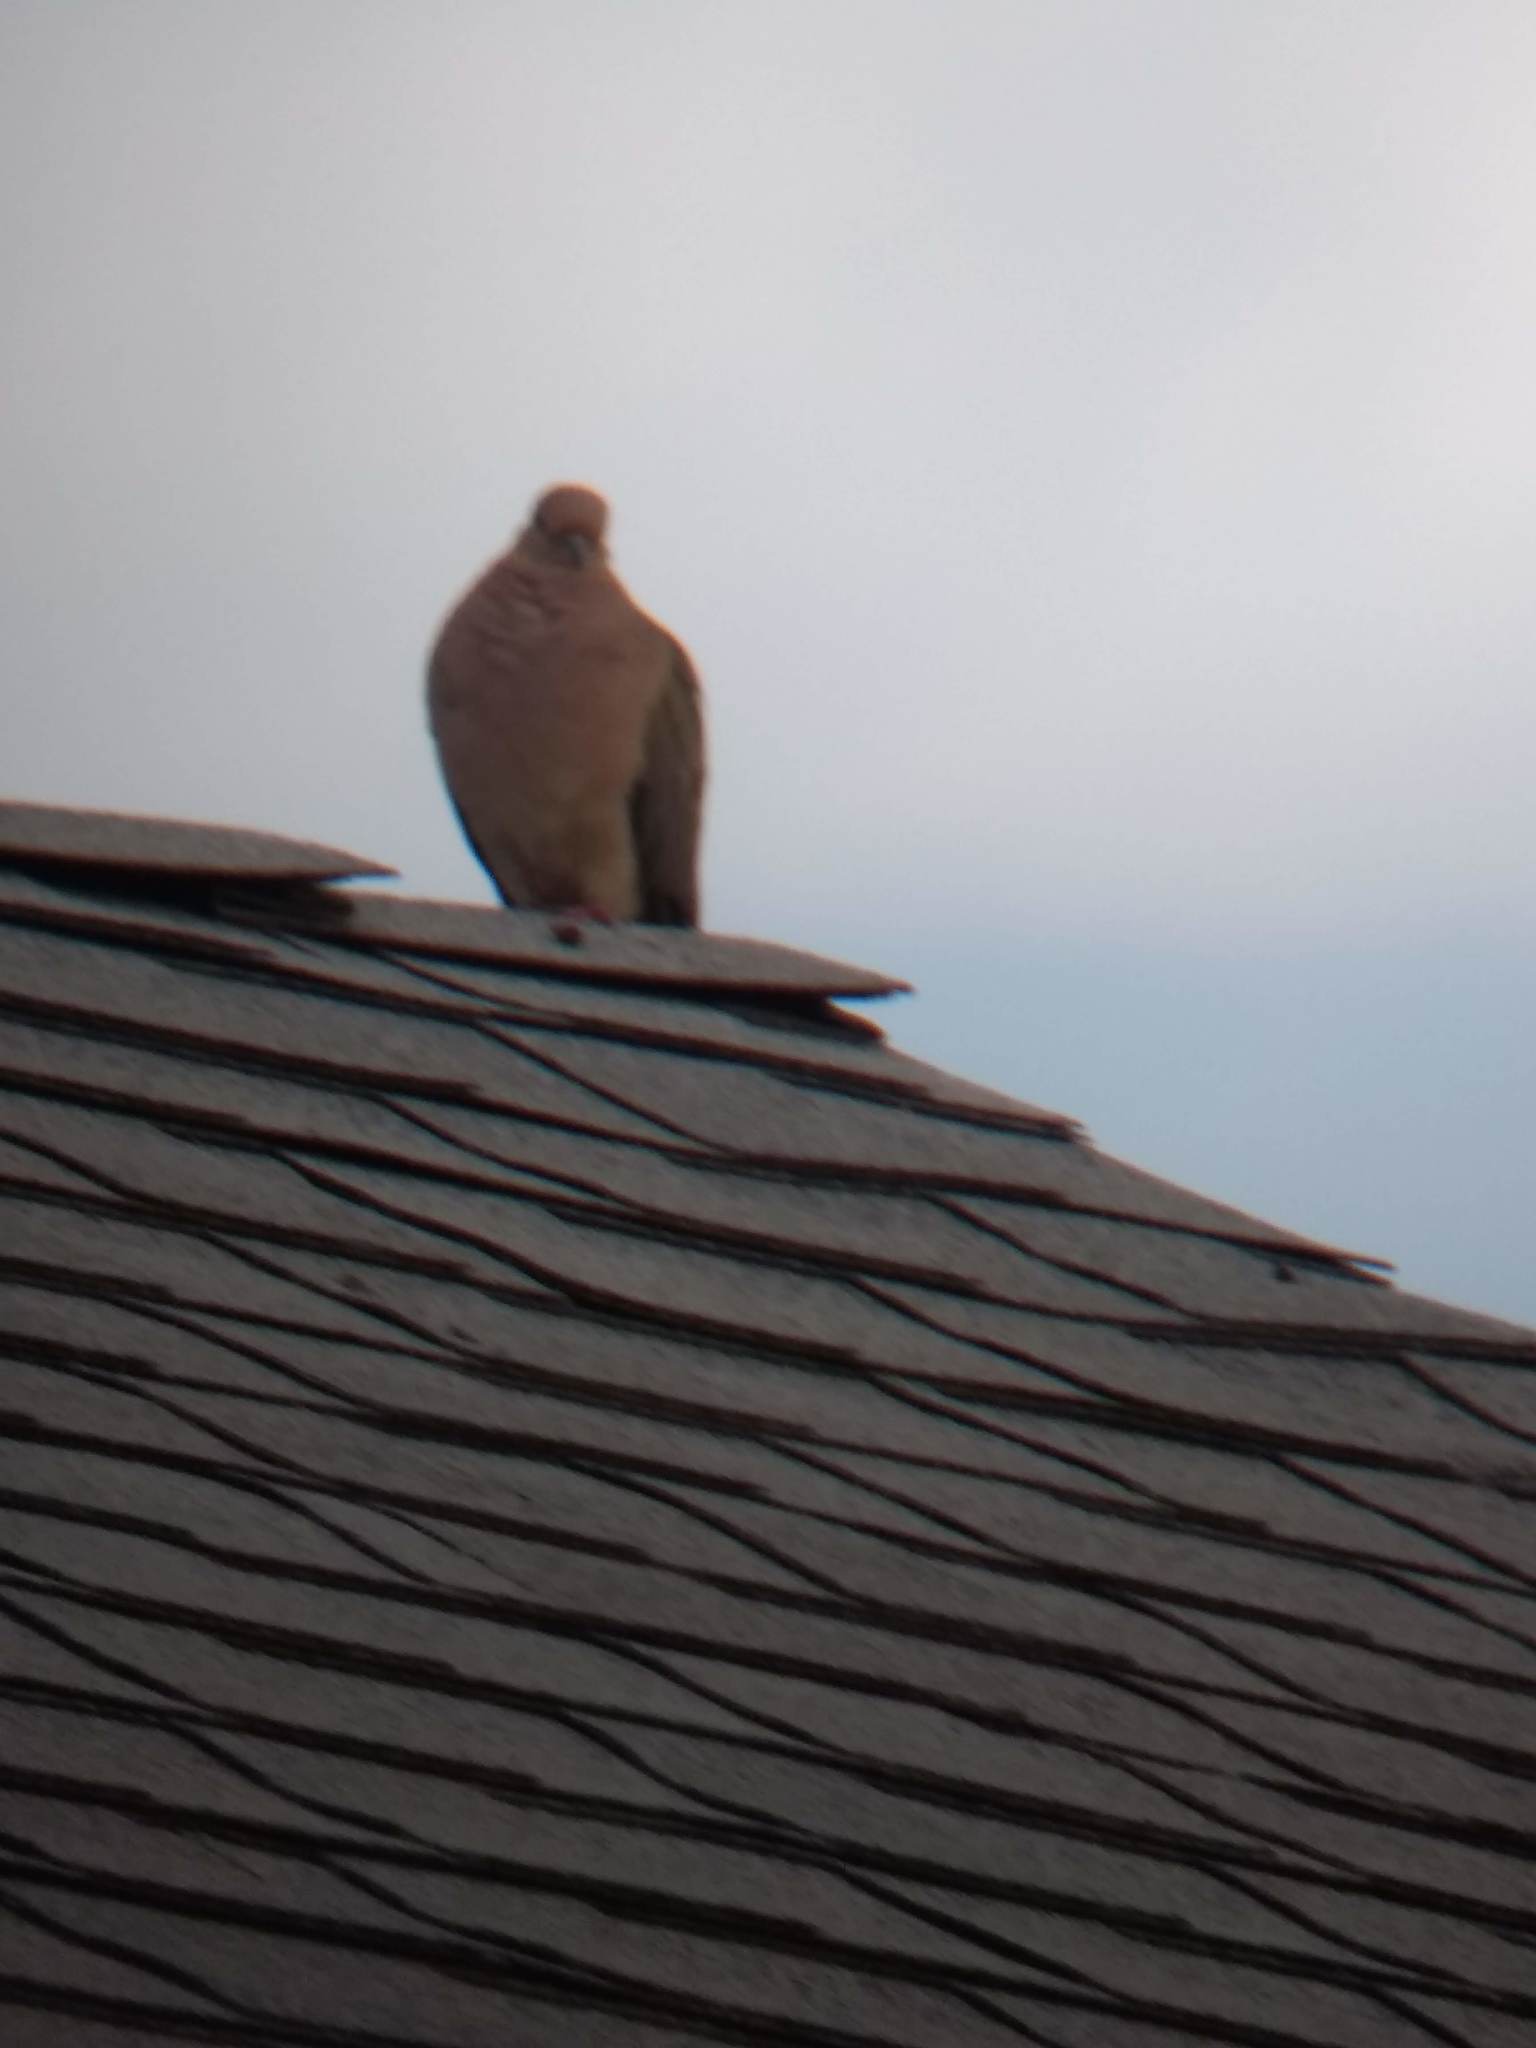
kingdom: Animalia
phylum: Chordata
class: Aves
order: Columbiformes
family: Columbidae
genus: Zenaida
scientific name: Zenaida macroura
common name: Mourning dove
